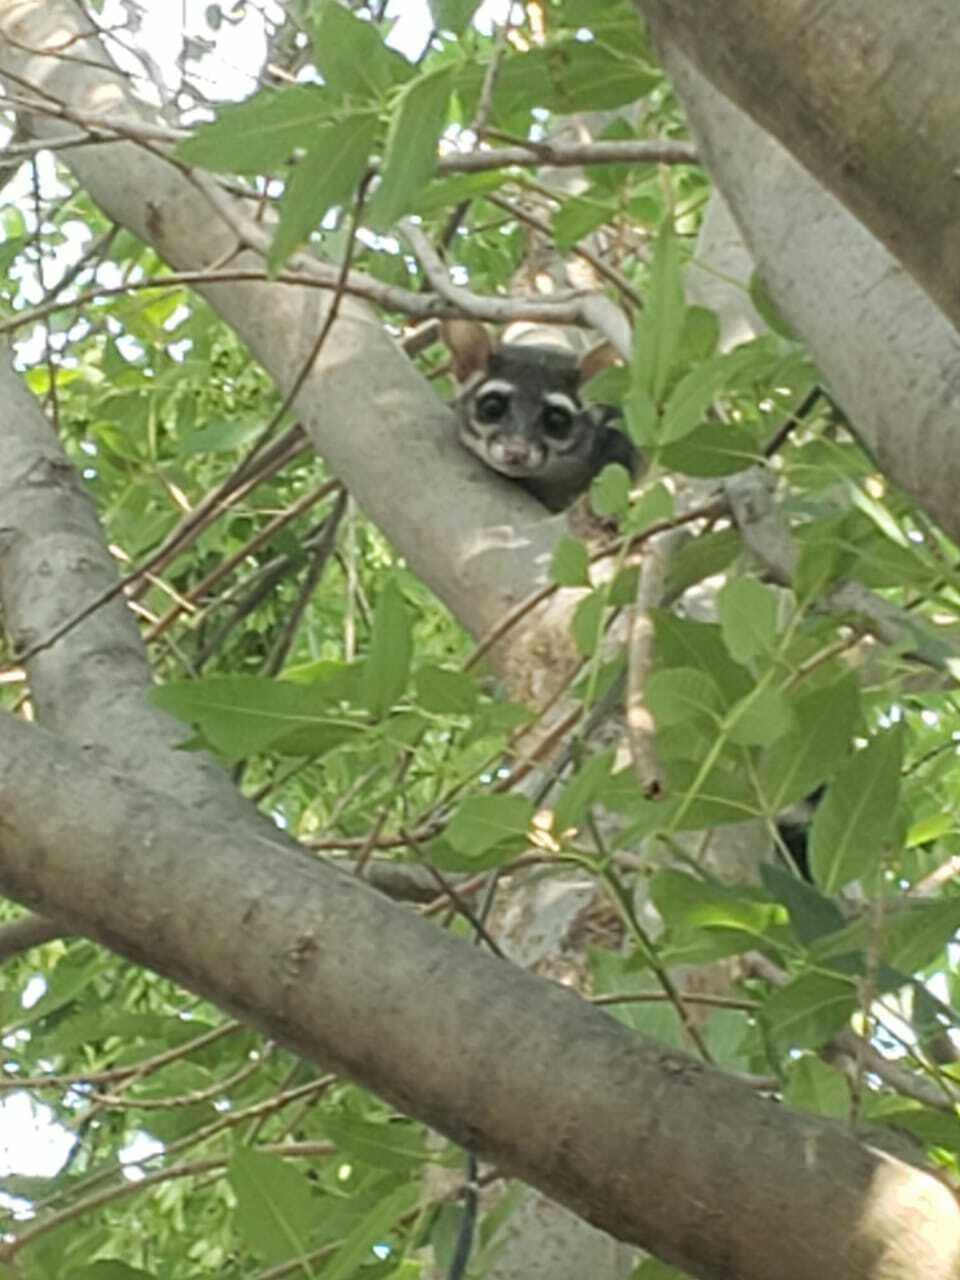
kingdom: Animalia
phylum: Chordata
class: Mammalia
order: Carnivora
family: Procyonidae
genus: Bassariscus
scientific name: Bassariscus astutus
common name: Ringtail
